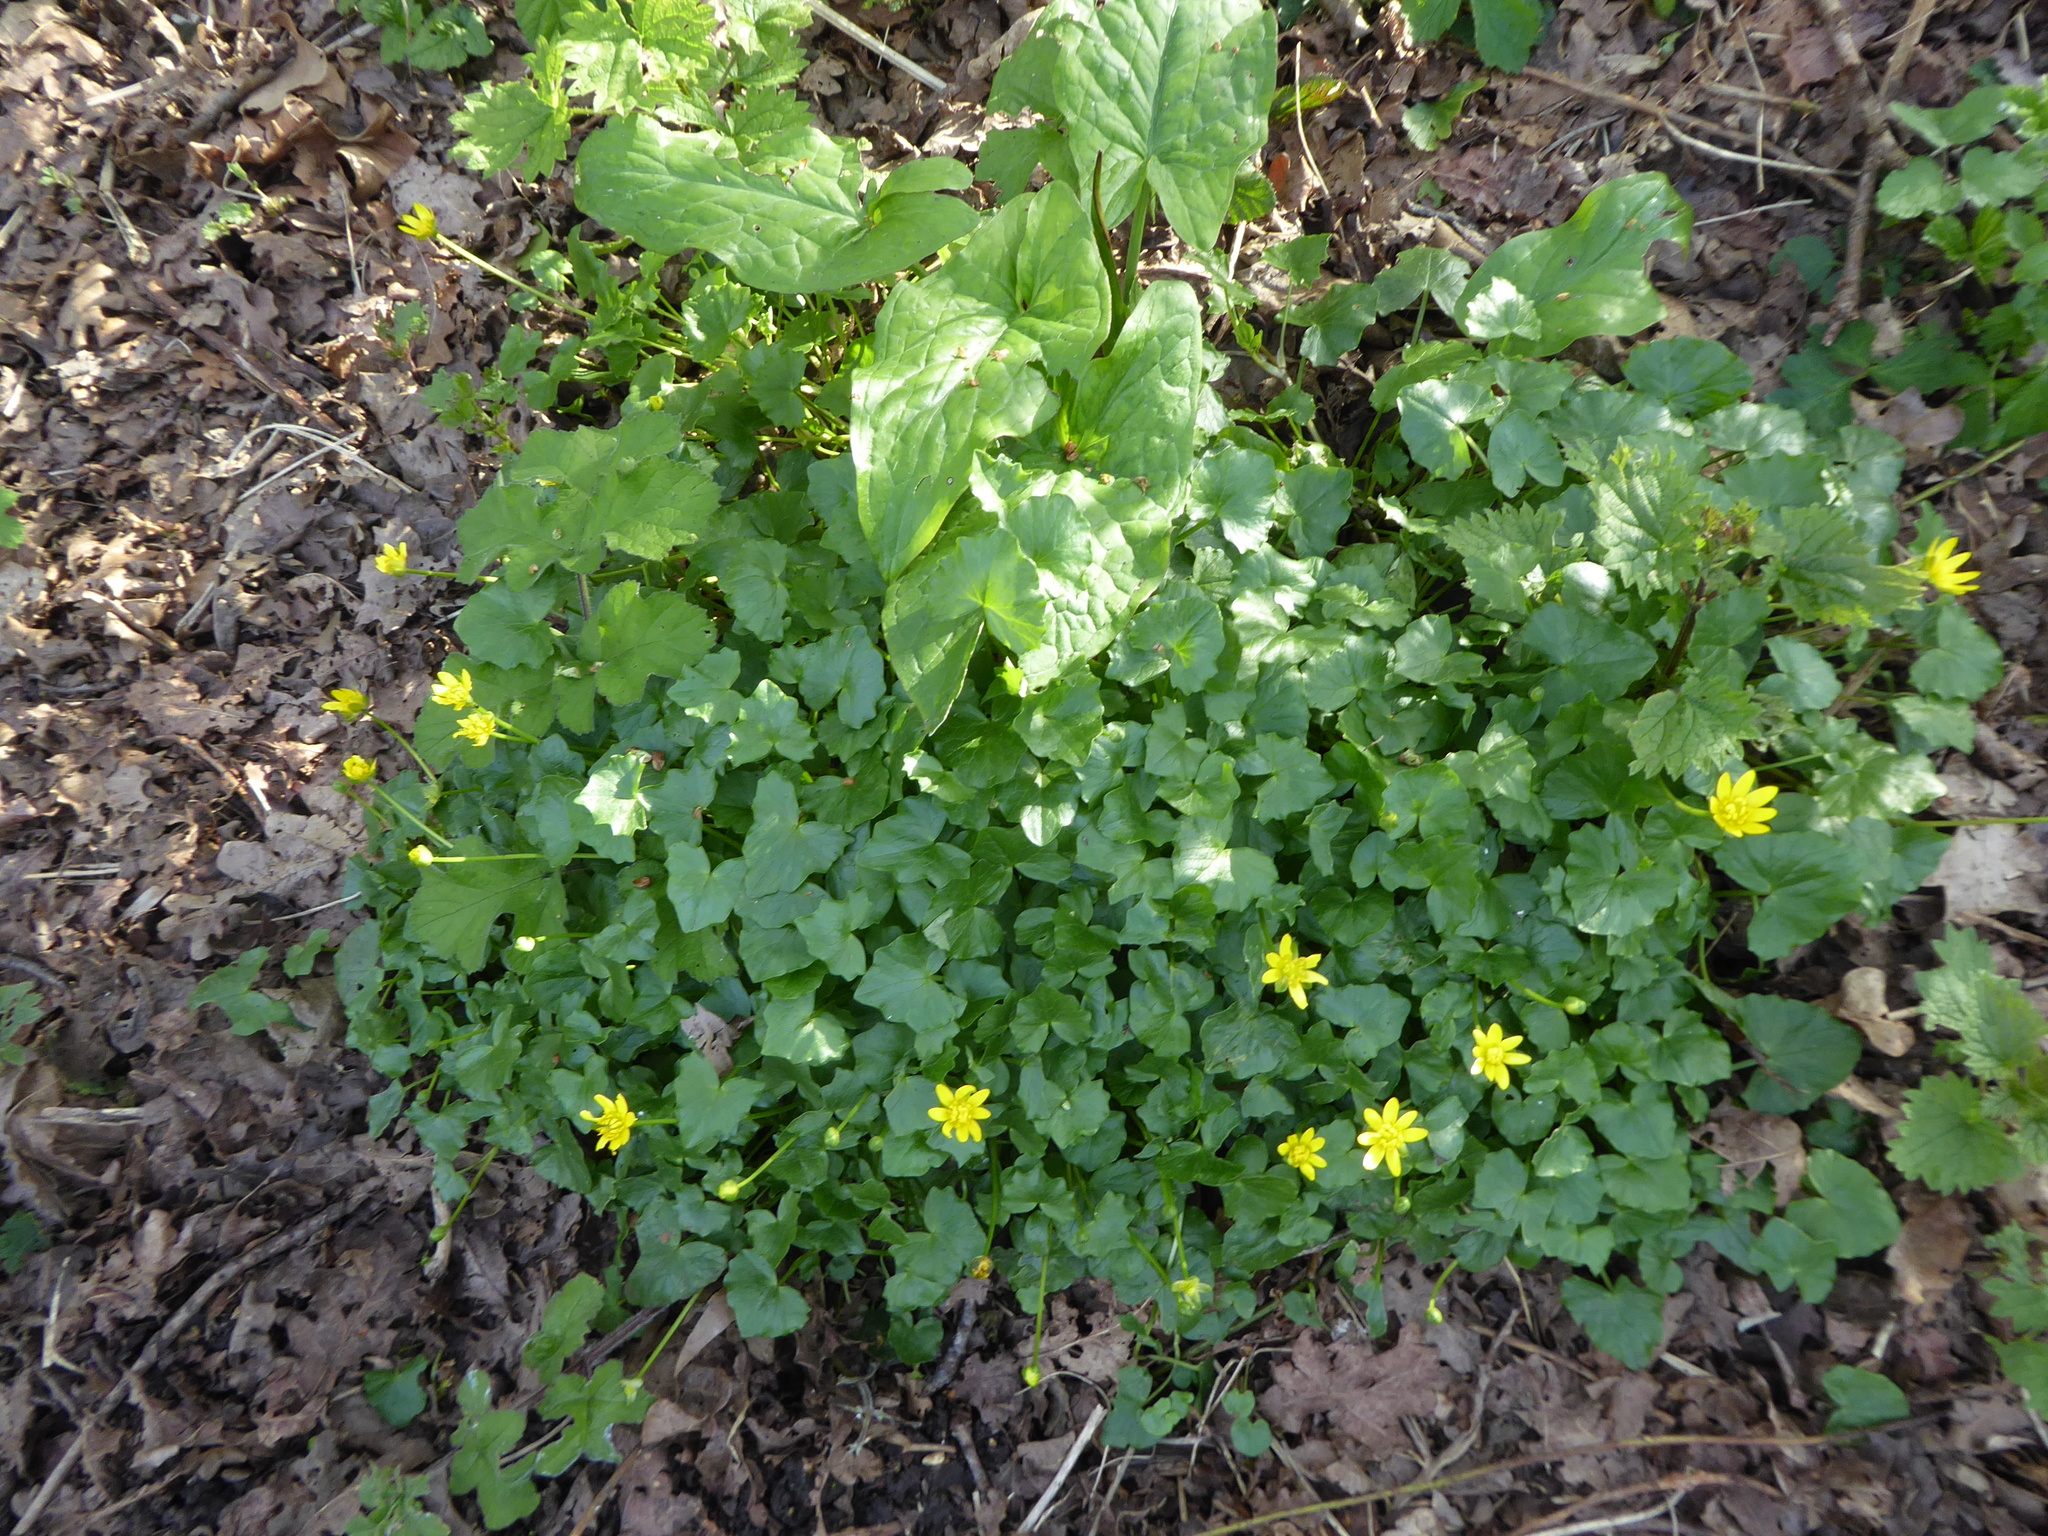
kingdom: Plantae
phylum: Tracheophyta
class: Magnoliopsida
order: Ranunculales
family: Ranunculaceae
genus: Ficaria
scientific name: Ficaria verna
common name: Lesser celandine
